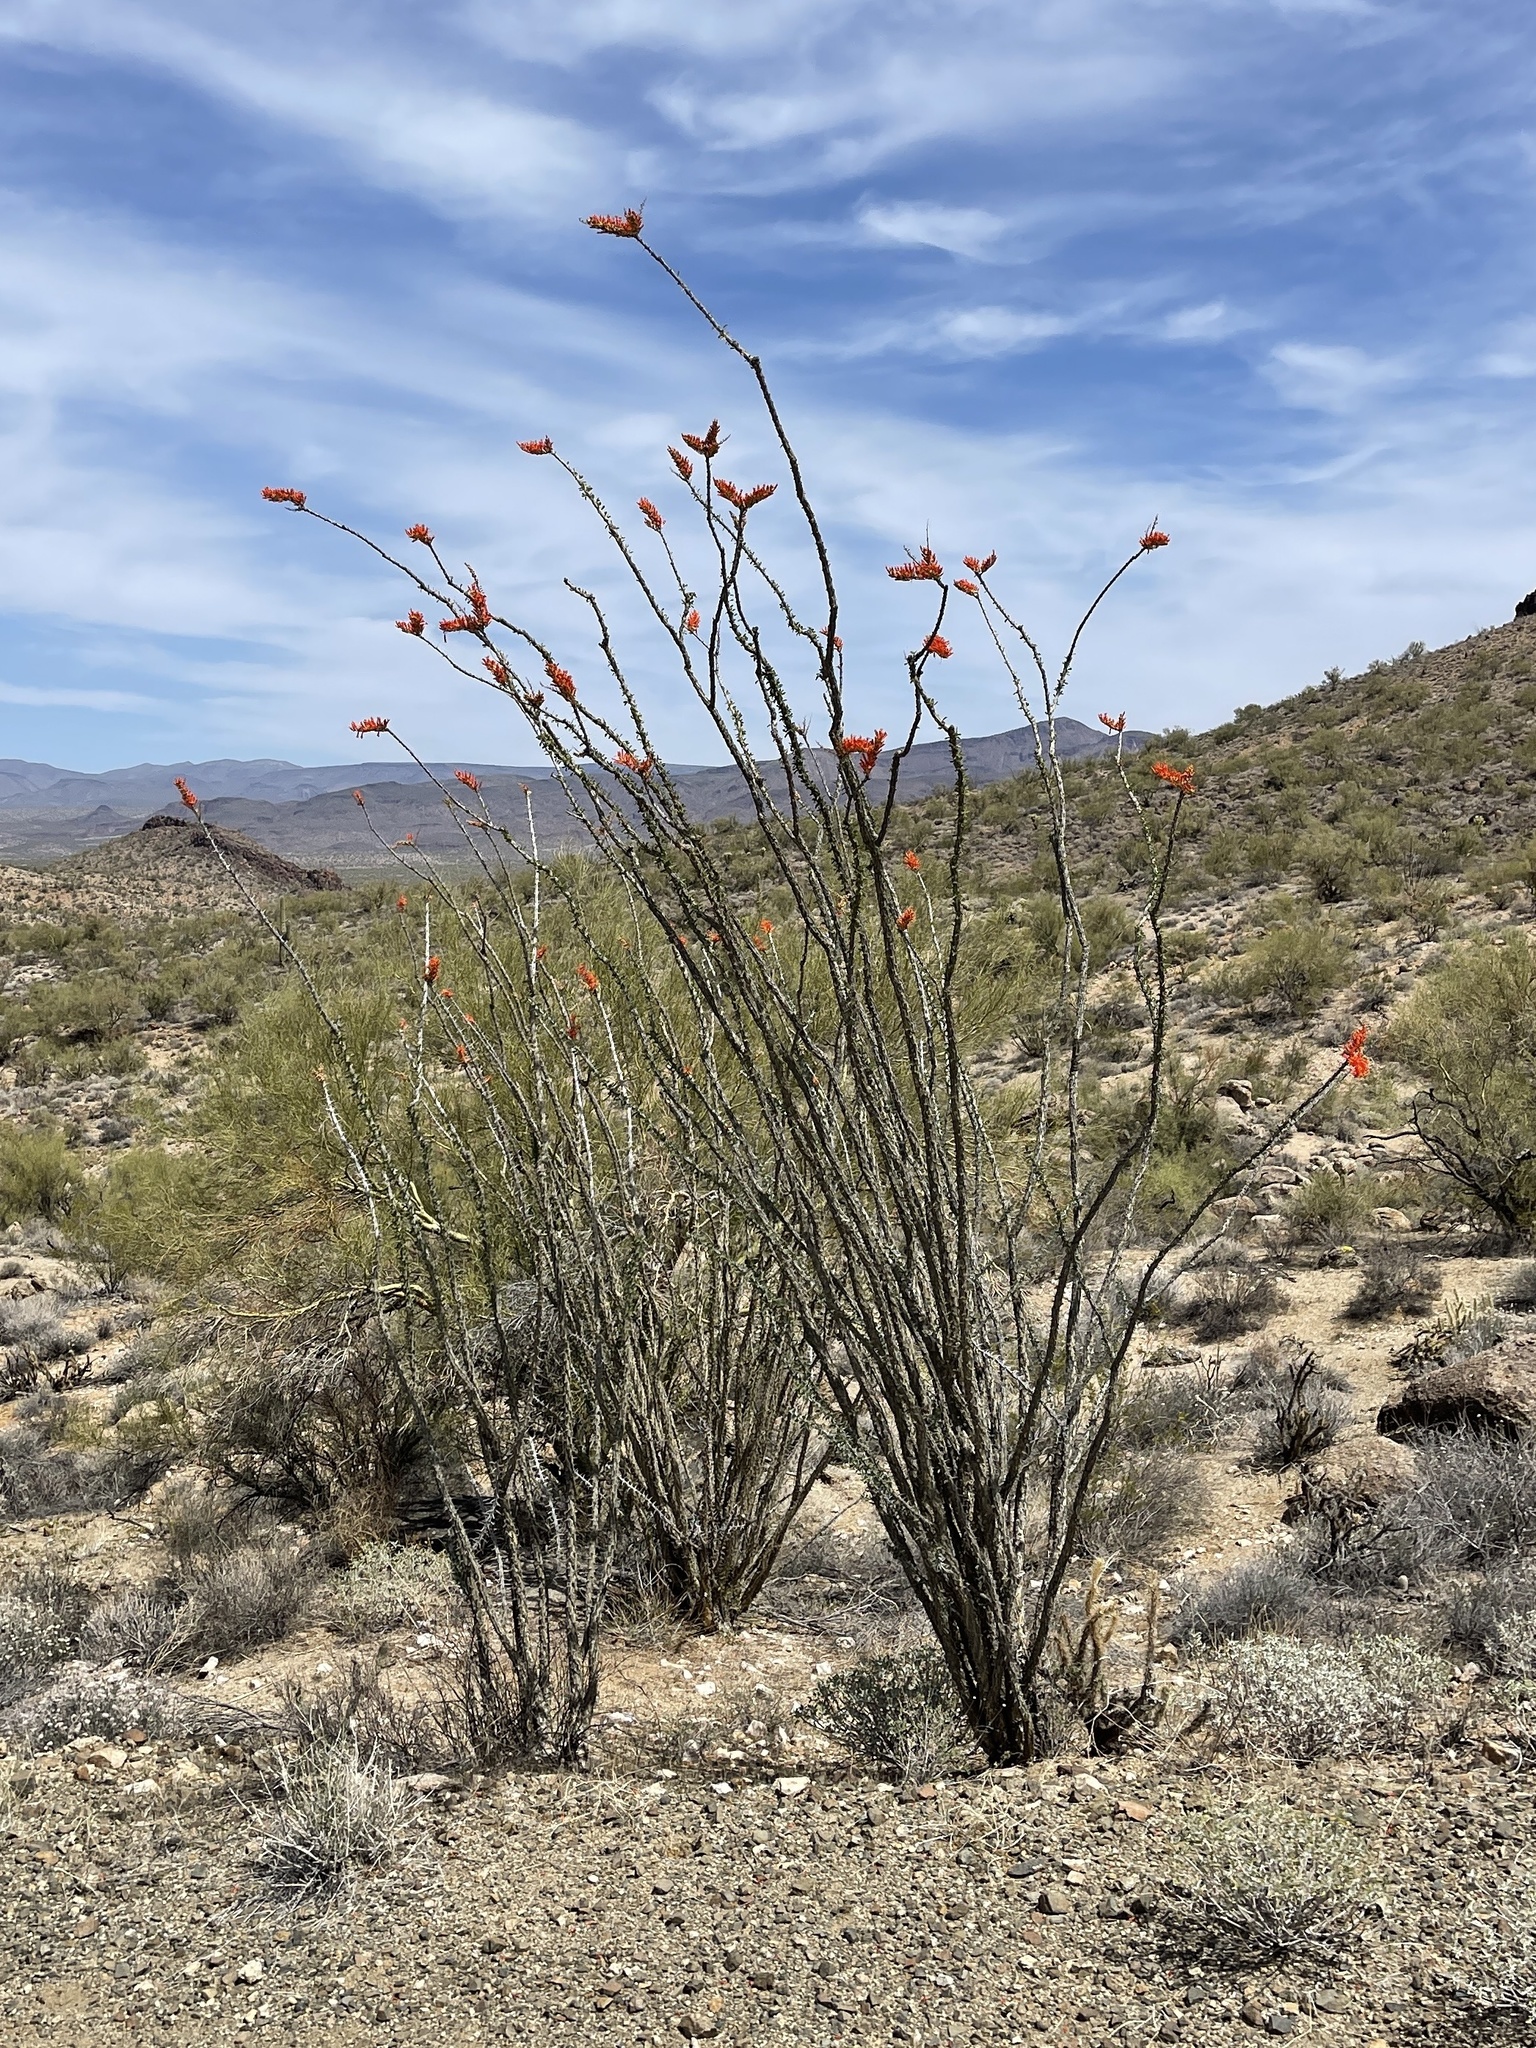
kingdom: Plantae
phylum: Tracheophyta
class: Magnoliopsida
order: Ericales
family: Fouquieriaceae
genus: Fouquieria
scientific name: Fouquieria splendens
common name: Vine-cactus
